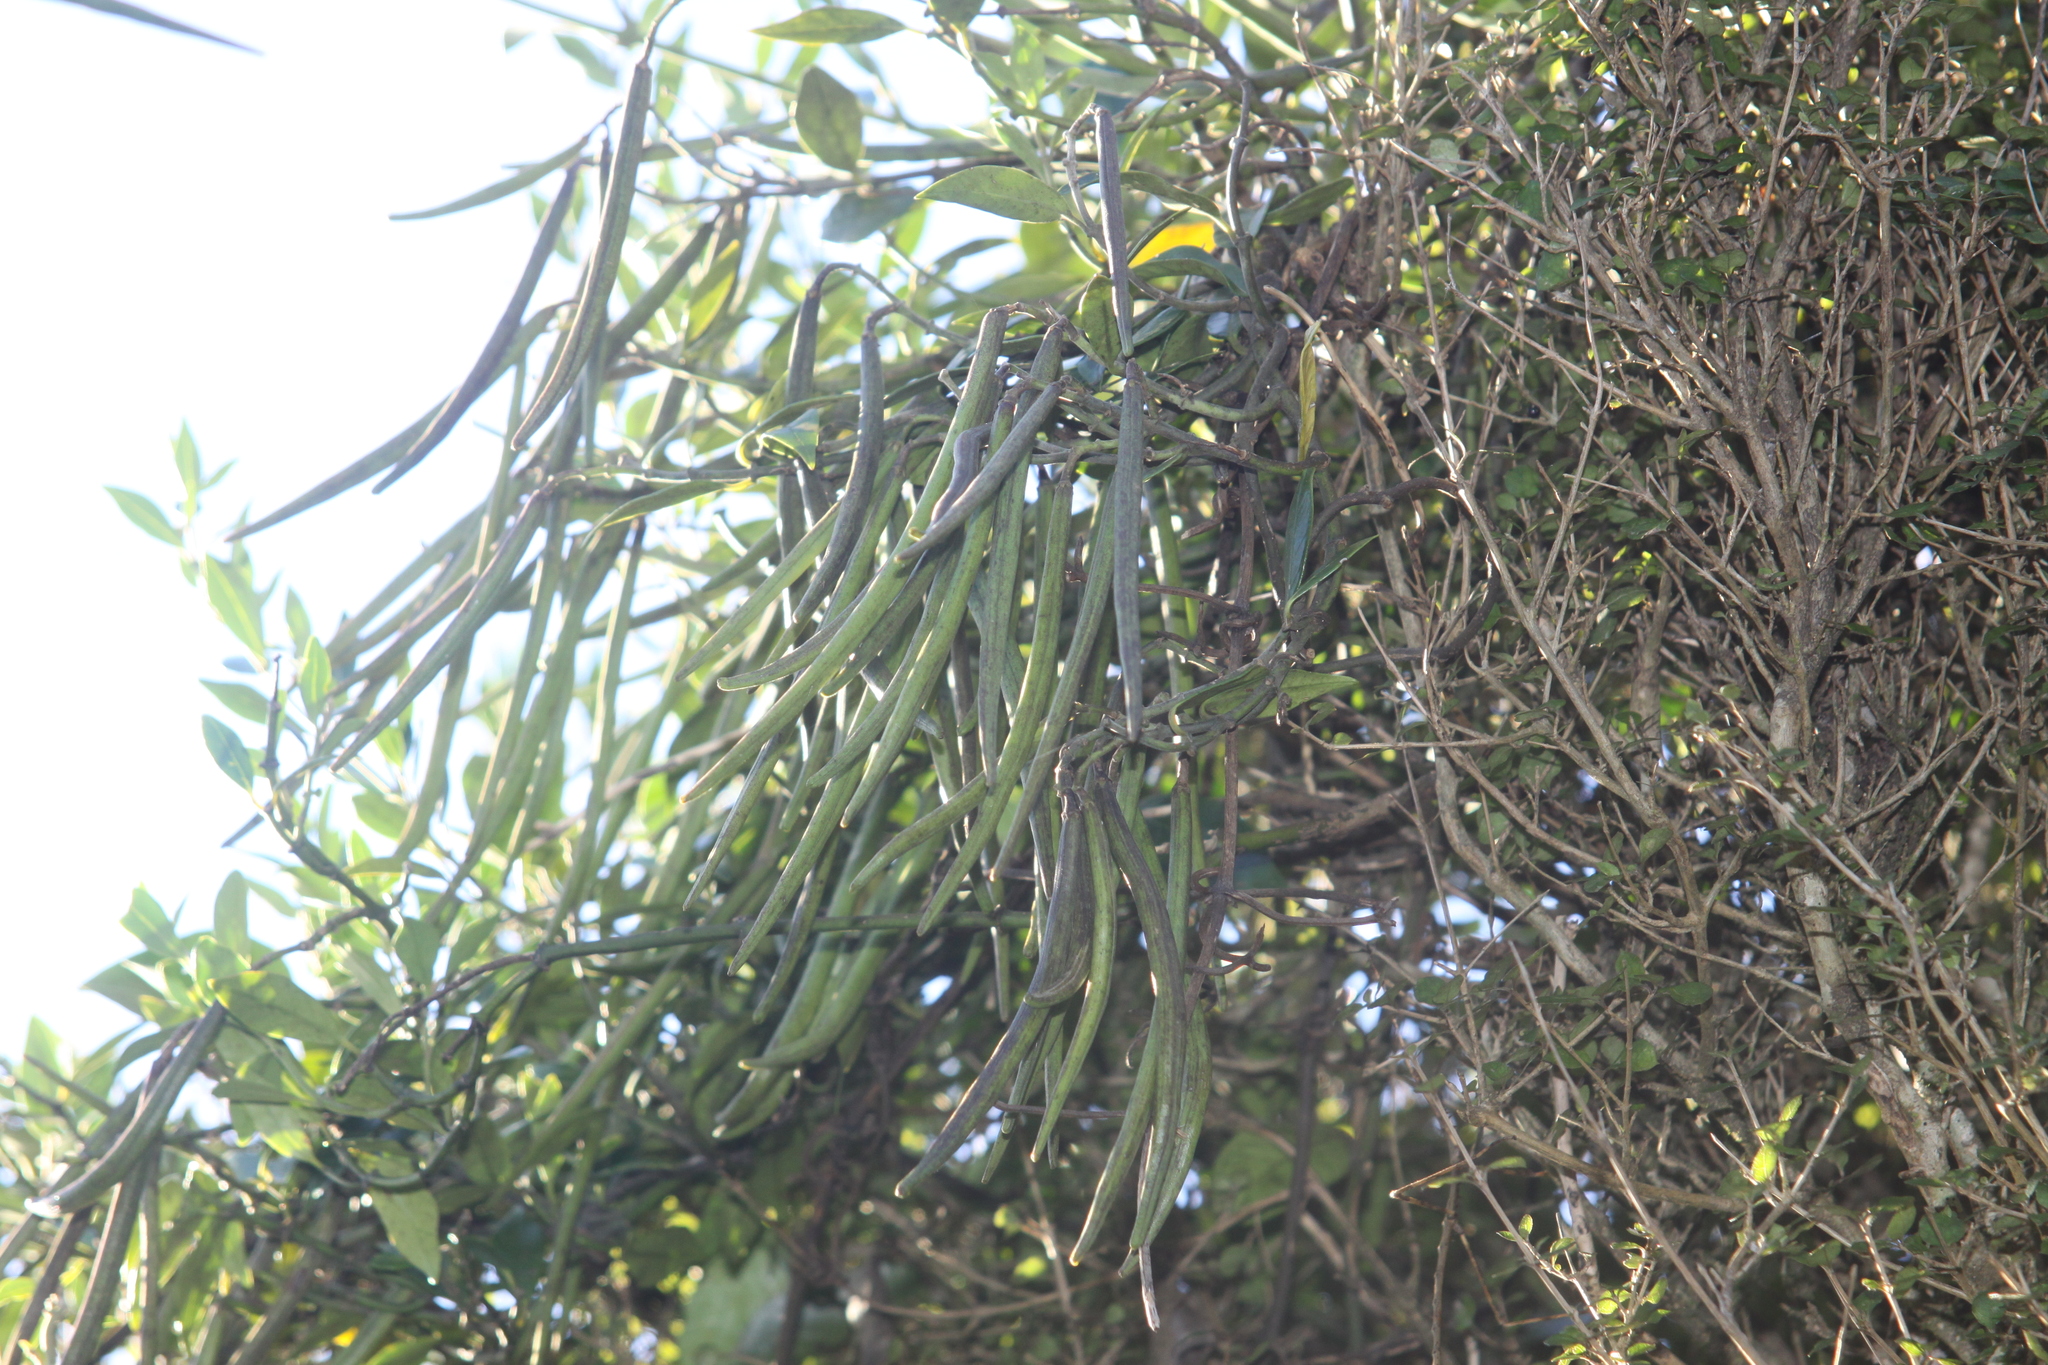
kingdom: Plantae
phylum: Tracheophyta
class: Magnoliopsida
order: Gentianales
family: Apocynaceae
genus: Parsonsia
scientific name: Parsonsia heterophylla
